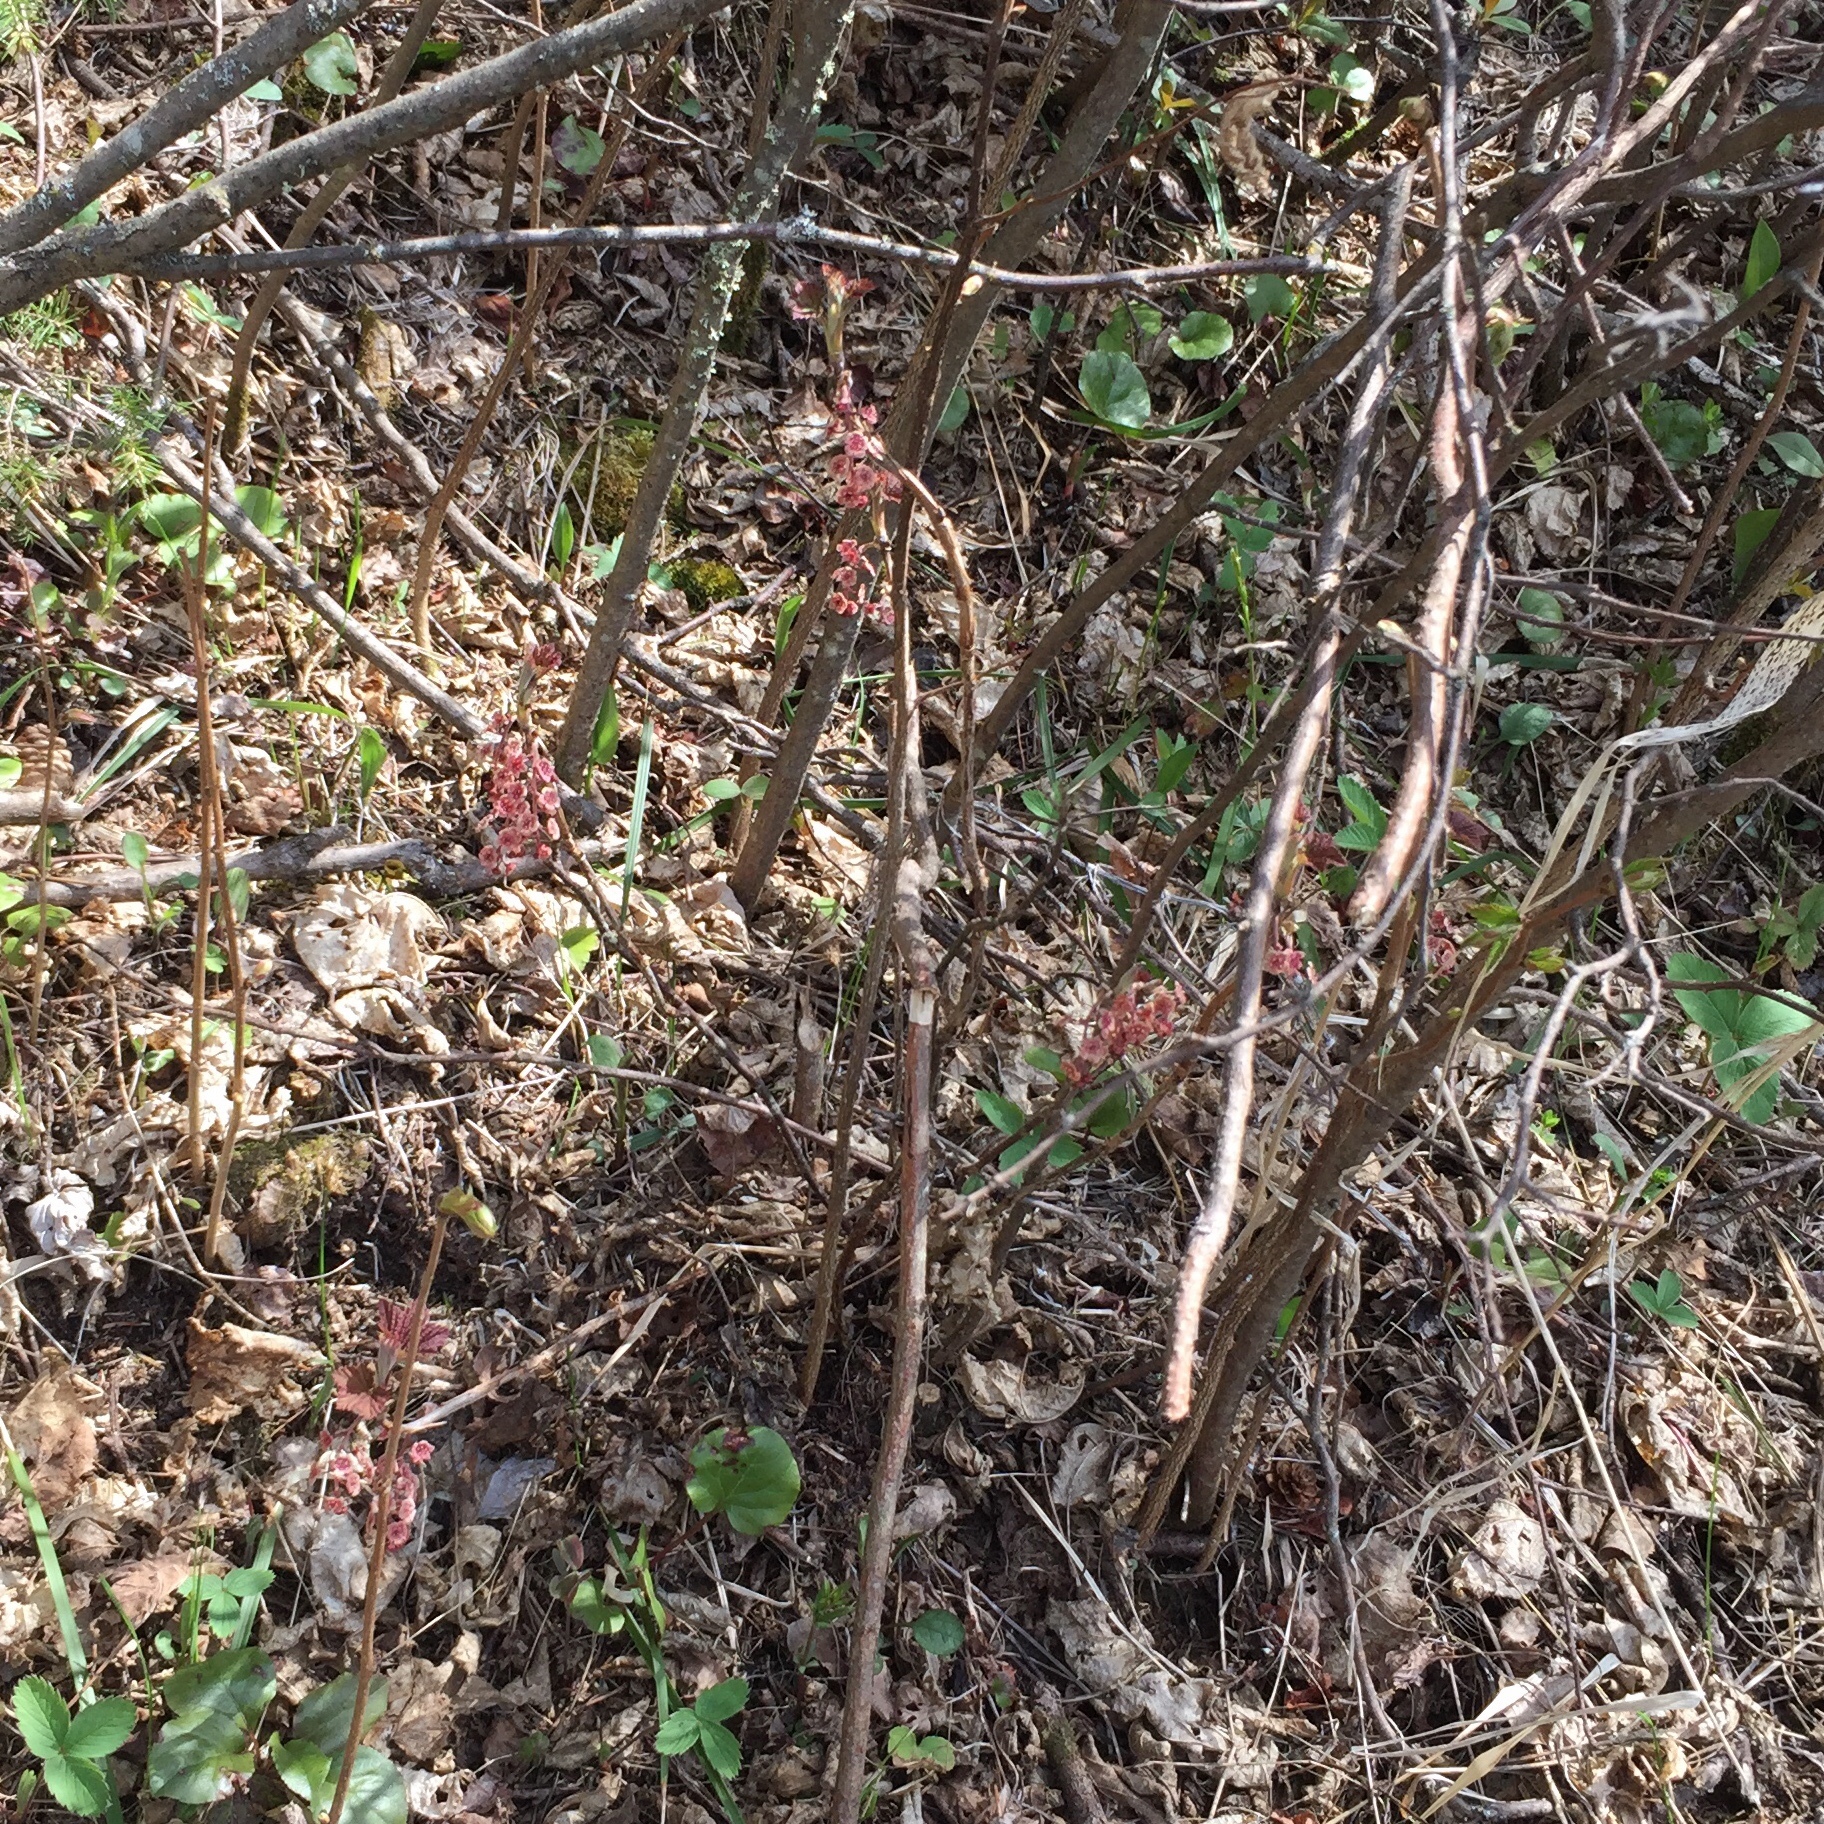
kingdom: Plantae
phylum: Tracheophyta
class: Magnoliopsida
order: Saxifragales
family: Grossulariaceae
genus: Ribes
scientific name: Ribes triste
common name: Swamp red currant
